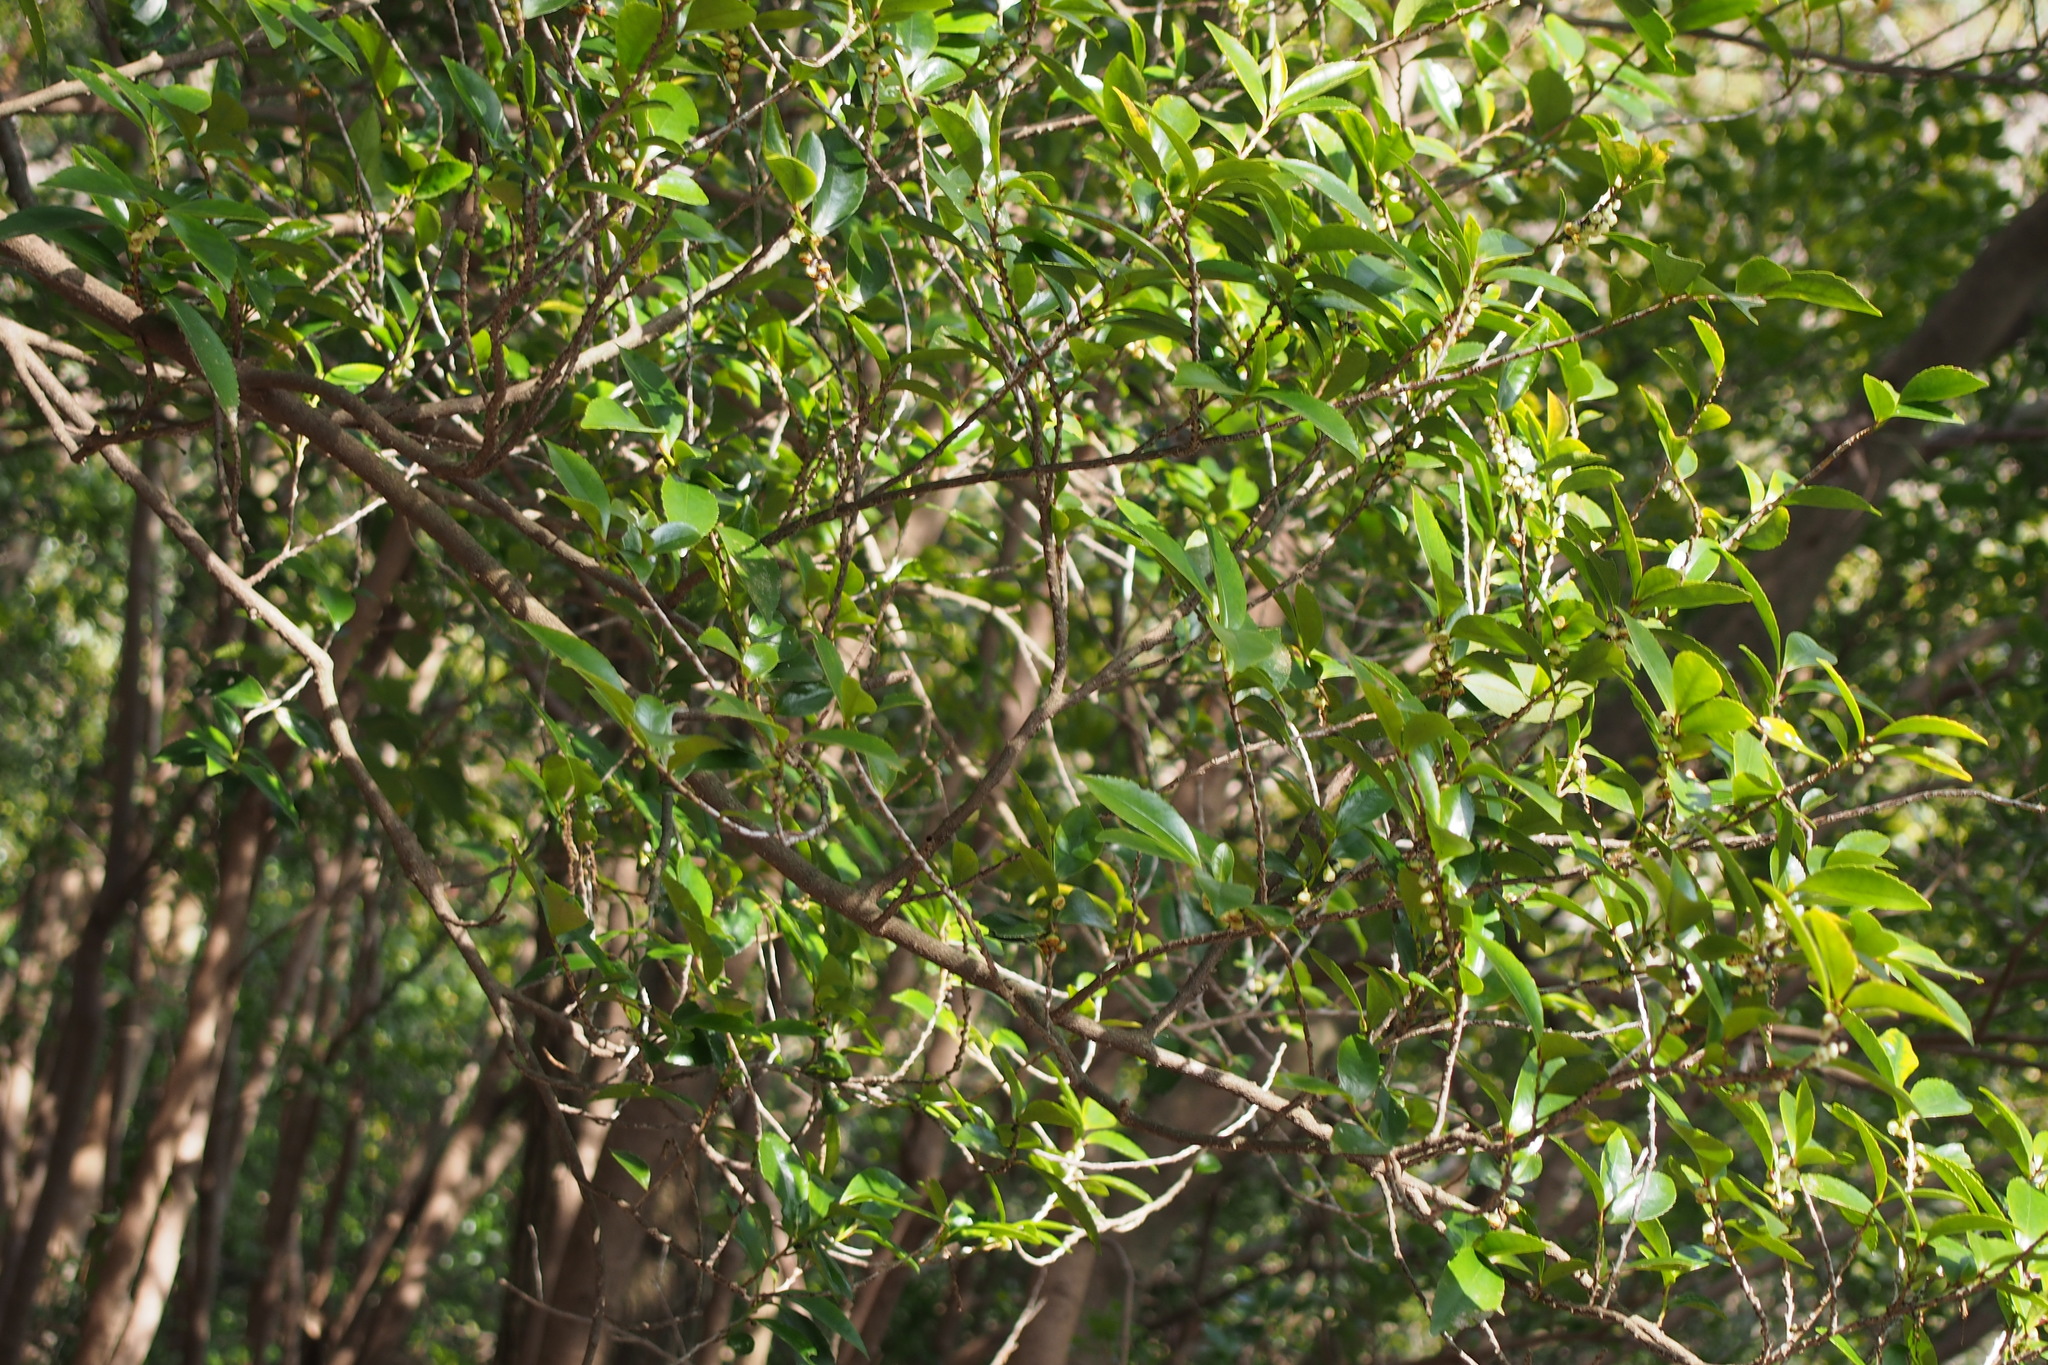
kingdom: Plantae
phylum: Tracheophyta
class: Magnoliopsida
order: Ericales
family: Pentaphylacaceae
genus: Eurya
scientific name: Eurya japonica
